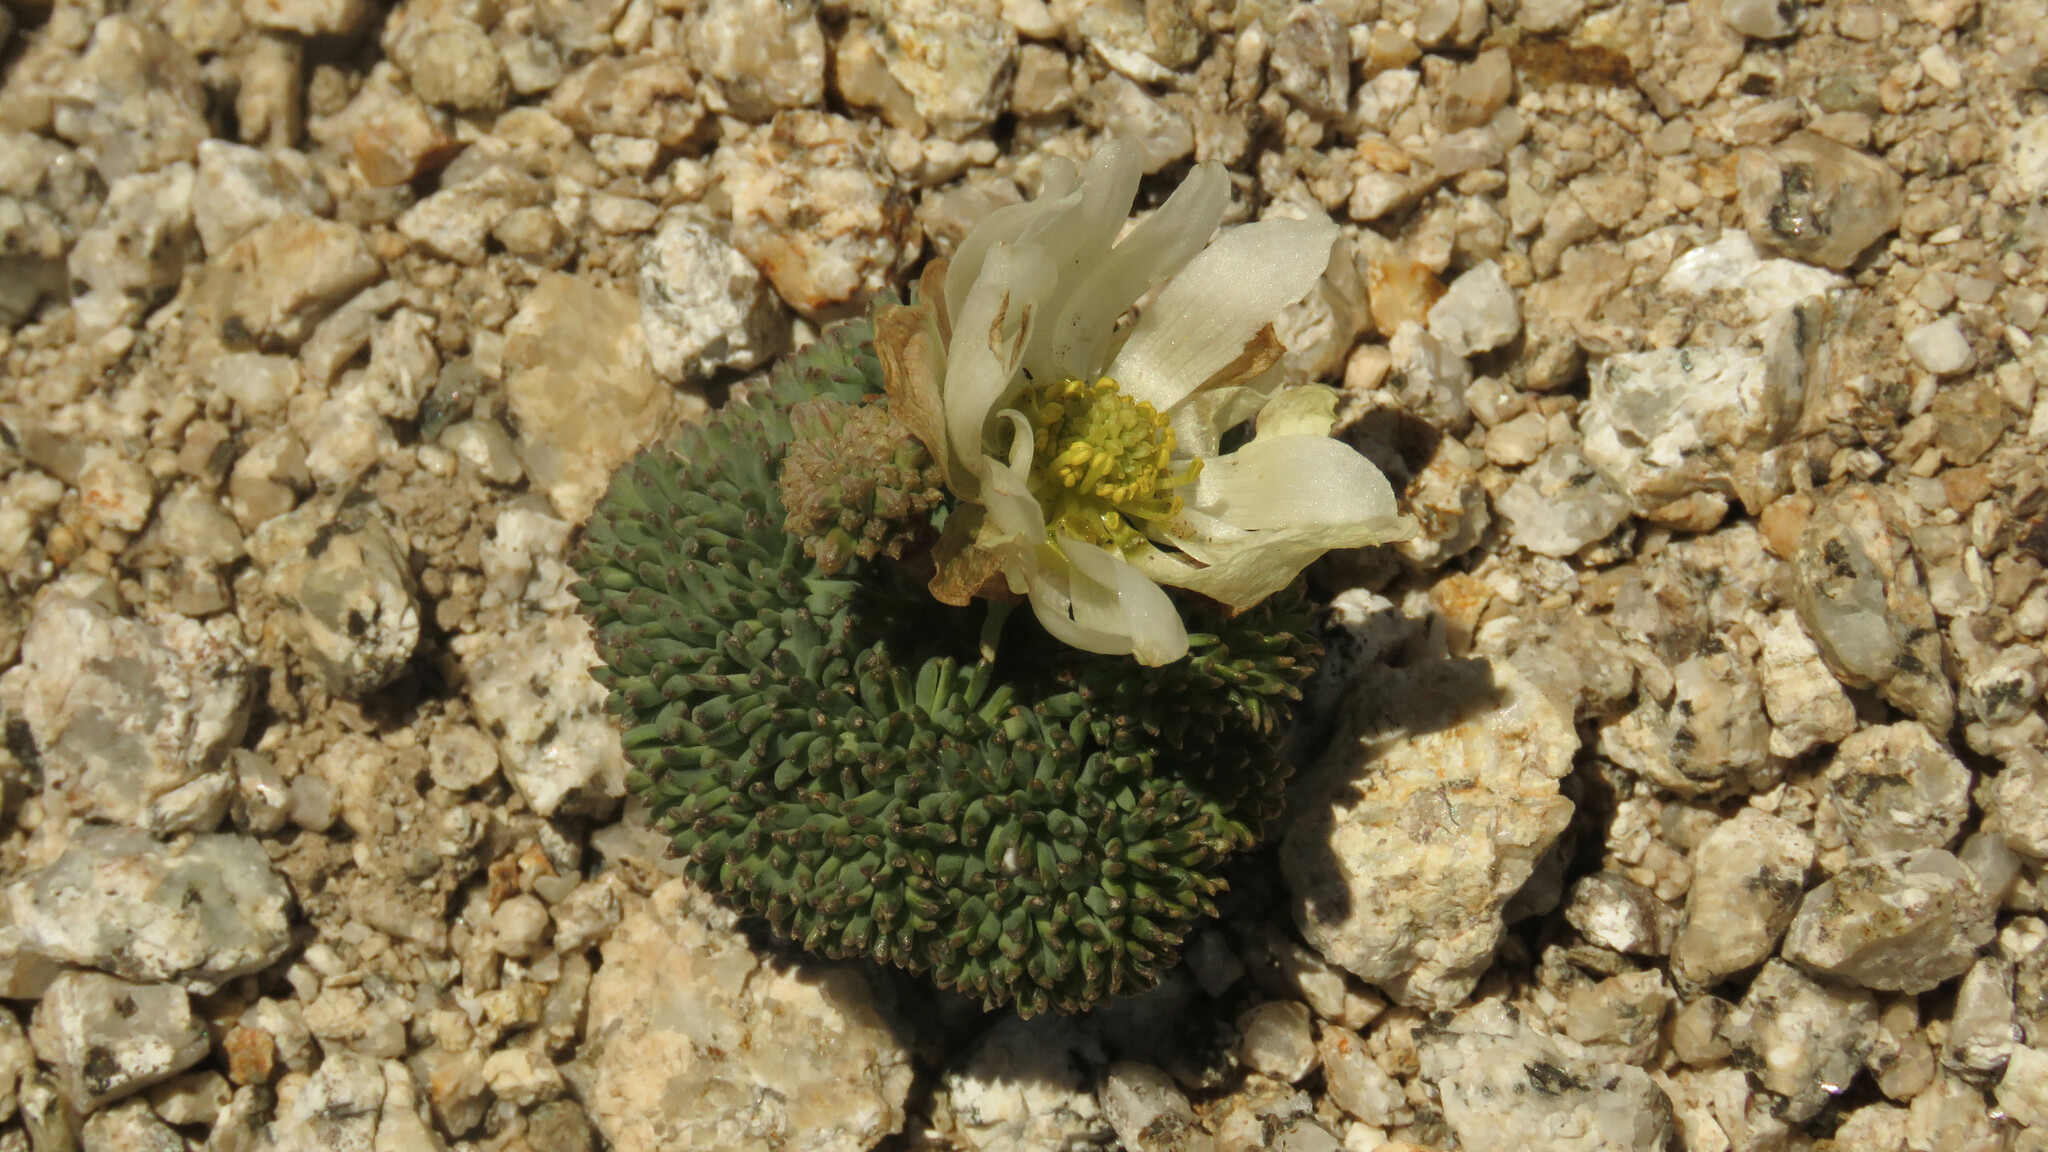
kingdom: Plantae
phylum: Tracheophyta
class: Magnoliopsida
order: Ranunculales
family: Ranunculaceae
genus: Callianthemoides
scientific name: Callianthemoides semiverticillatus
